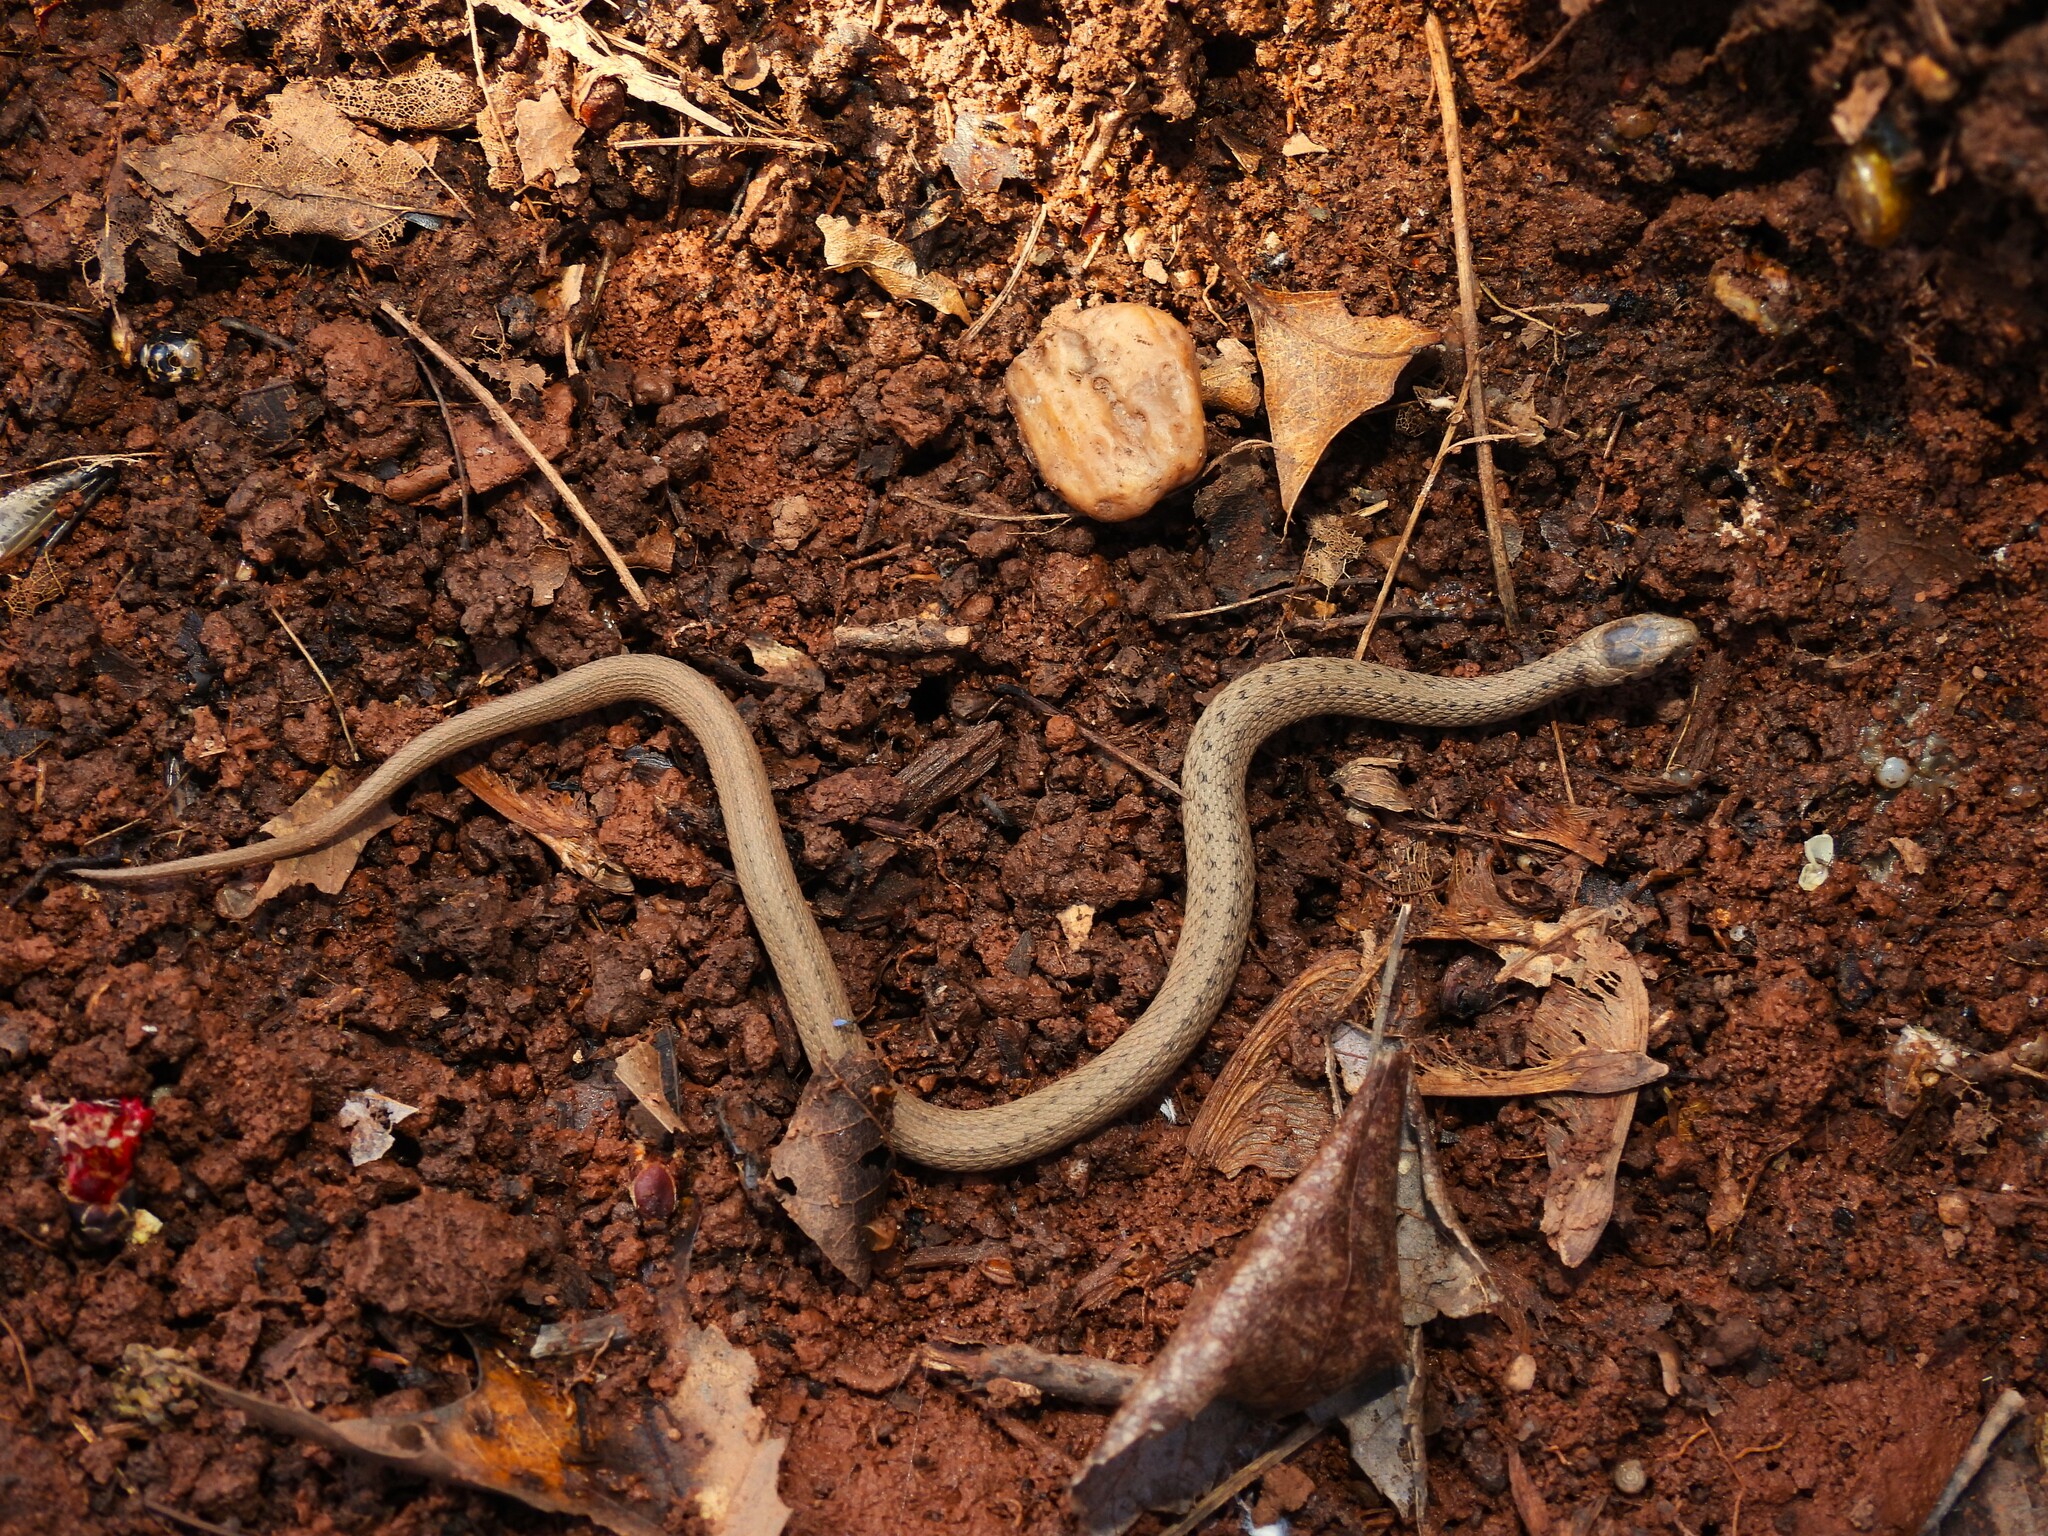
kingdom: Animalia
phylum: Chordata
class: Squamata
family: Colubridae
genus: Storeria
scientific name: Storeria dekayi
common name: (dekay’s) brown snake
